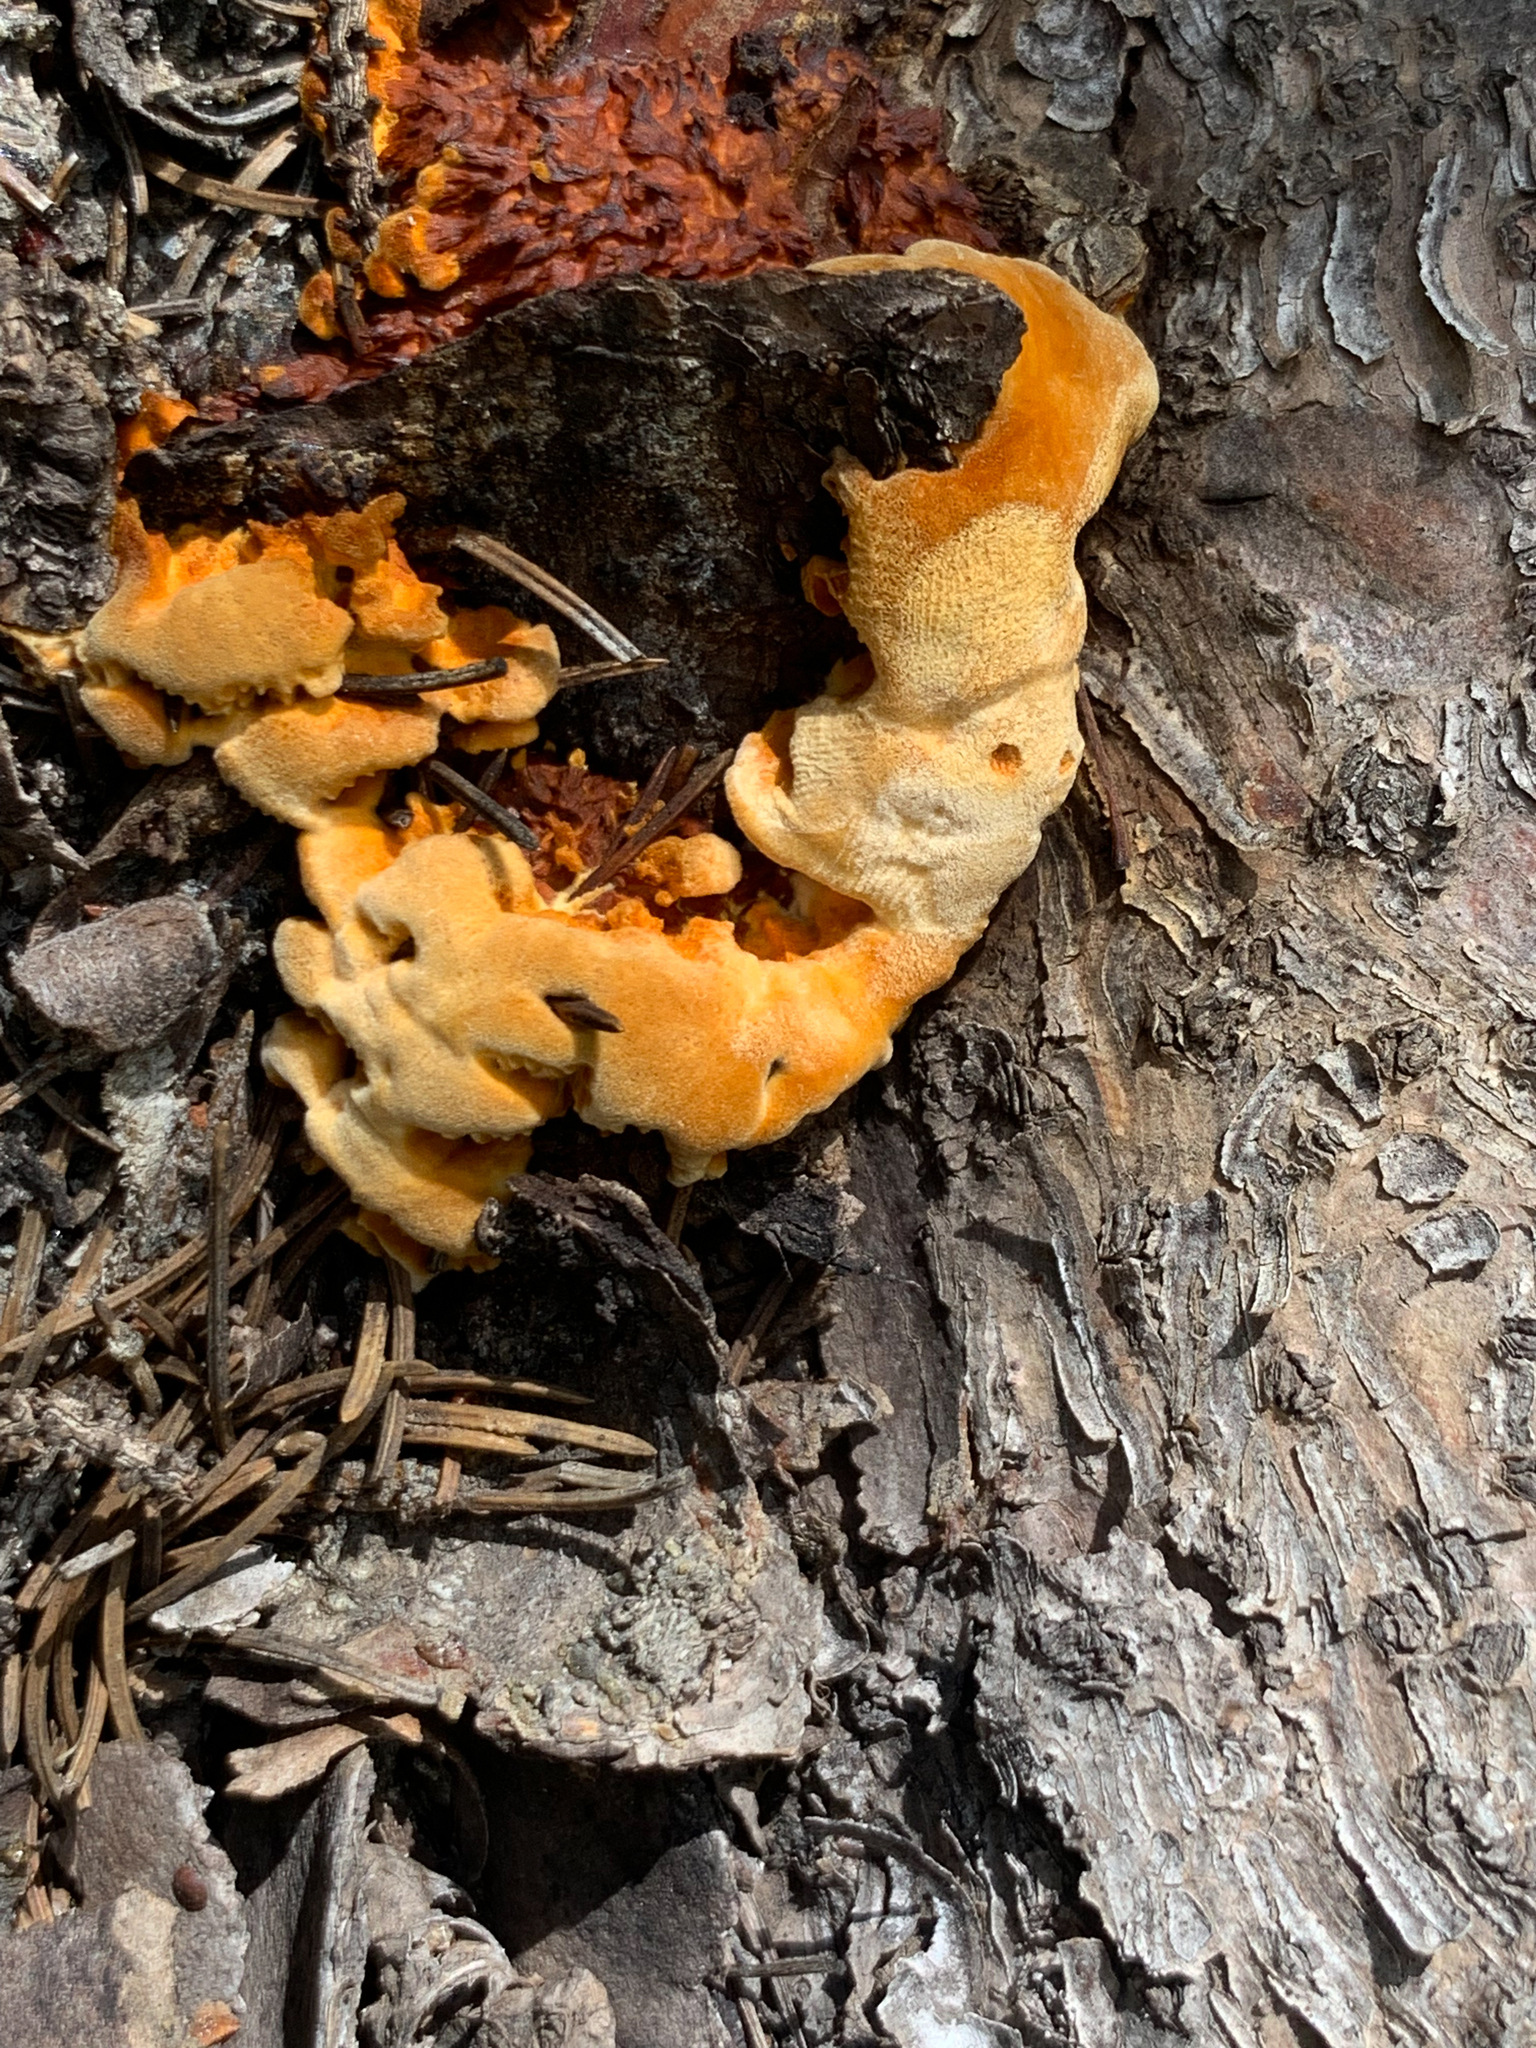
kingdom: Fungi
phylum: Basidiomycota
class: Agaricomycetes
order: Polyporales
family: Laetiporaceae
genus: Phaeolus
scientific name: Phaeolus schweinitzii
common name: Dyer's mazegill
